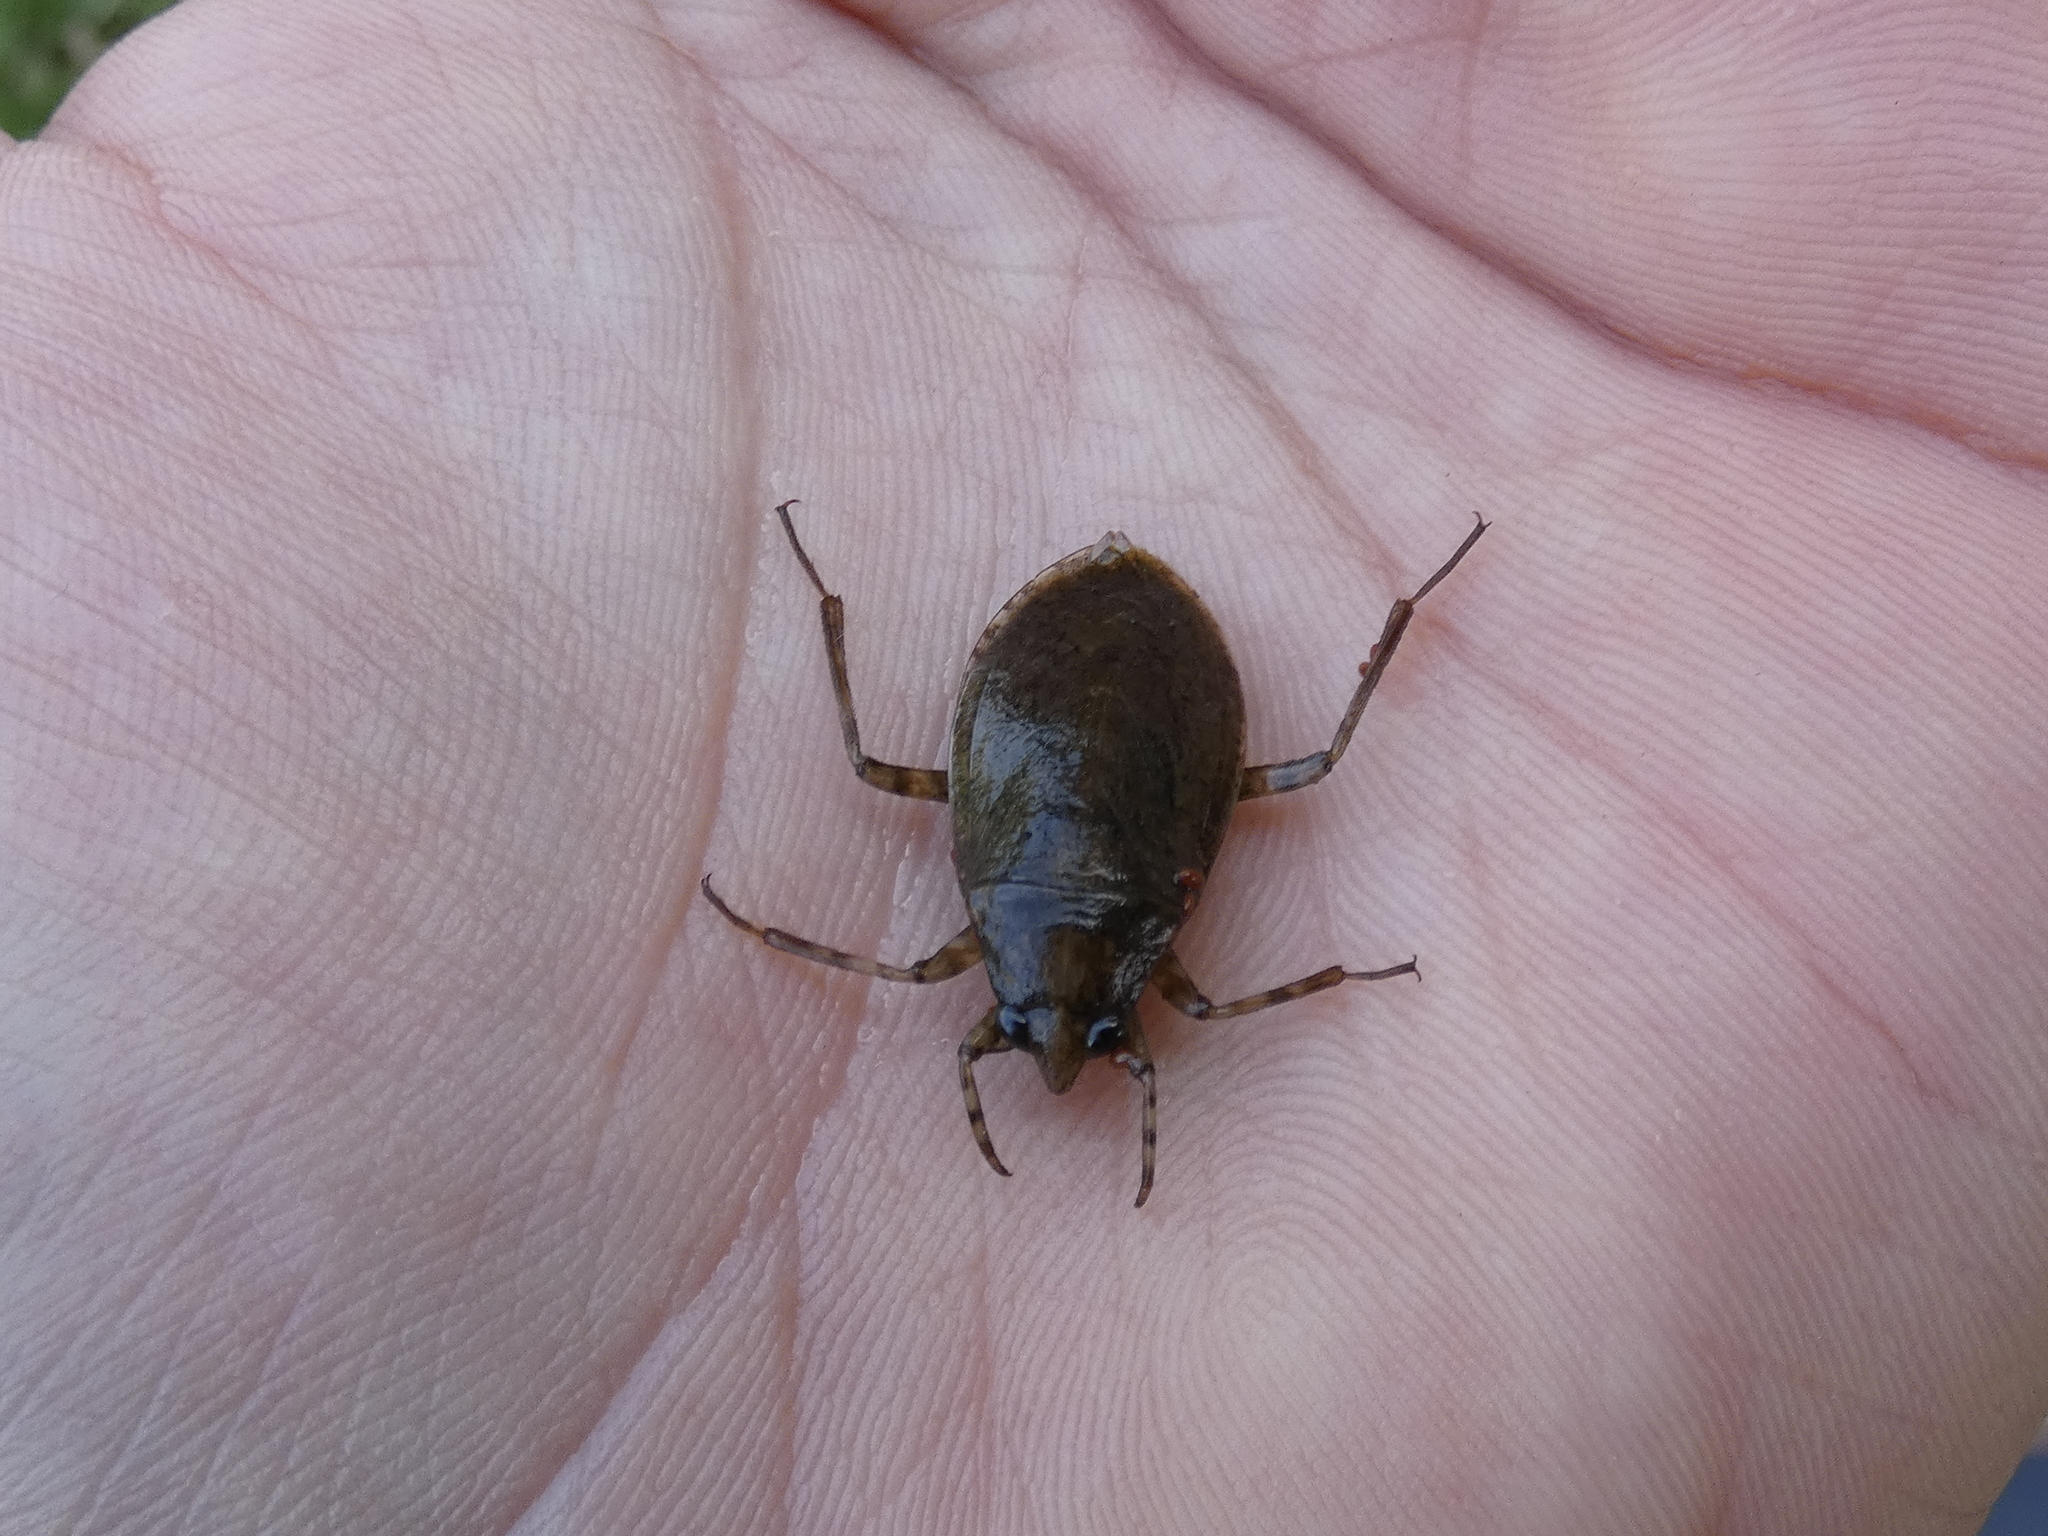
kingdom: Animalia
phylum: Arthropoda
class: Insecta
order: Hemiptera
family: Belostomatidae
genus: Belostoma
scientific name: Belostoma
